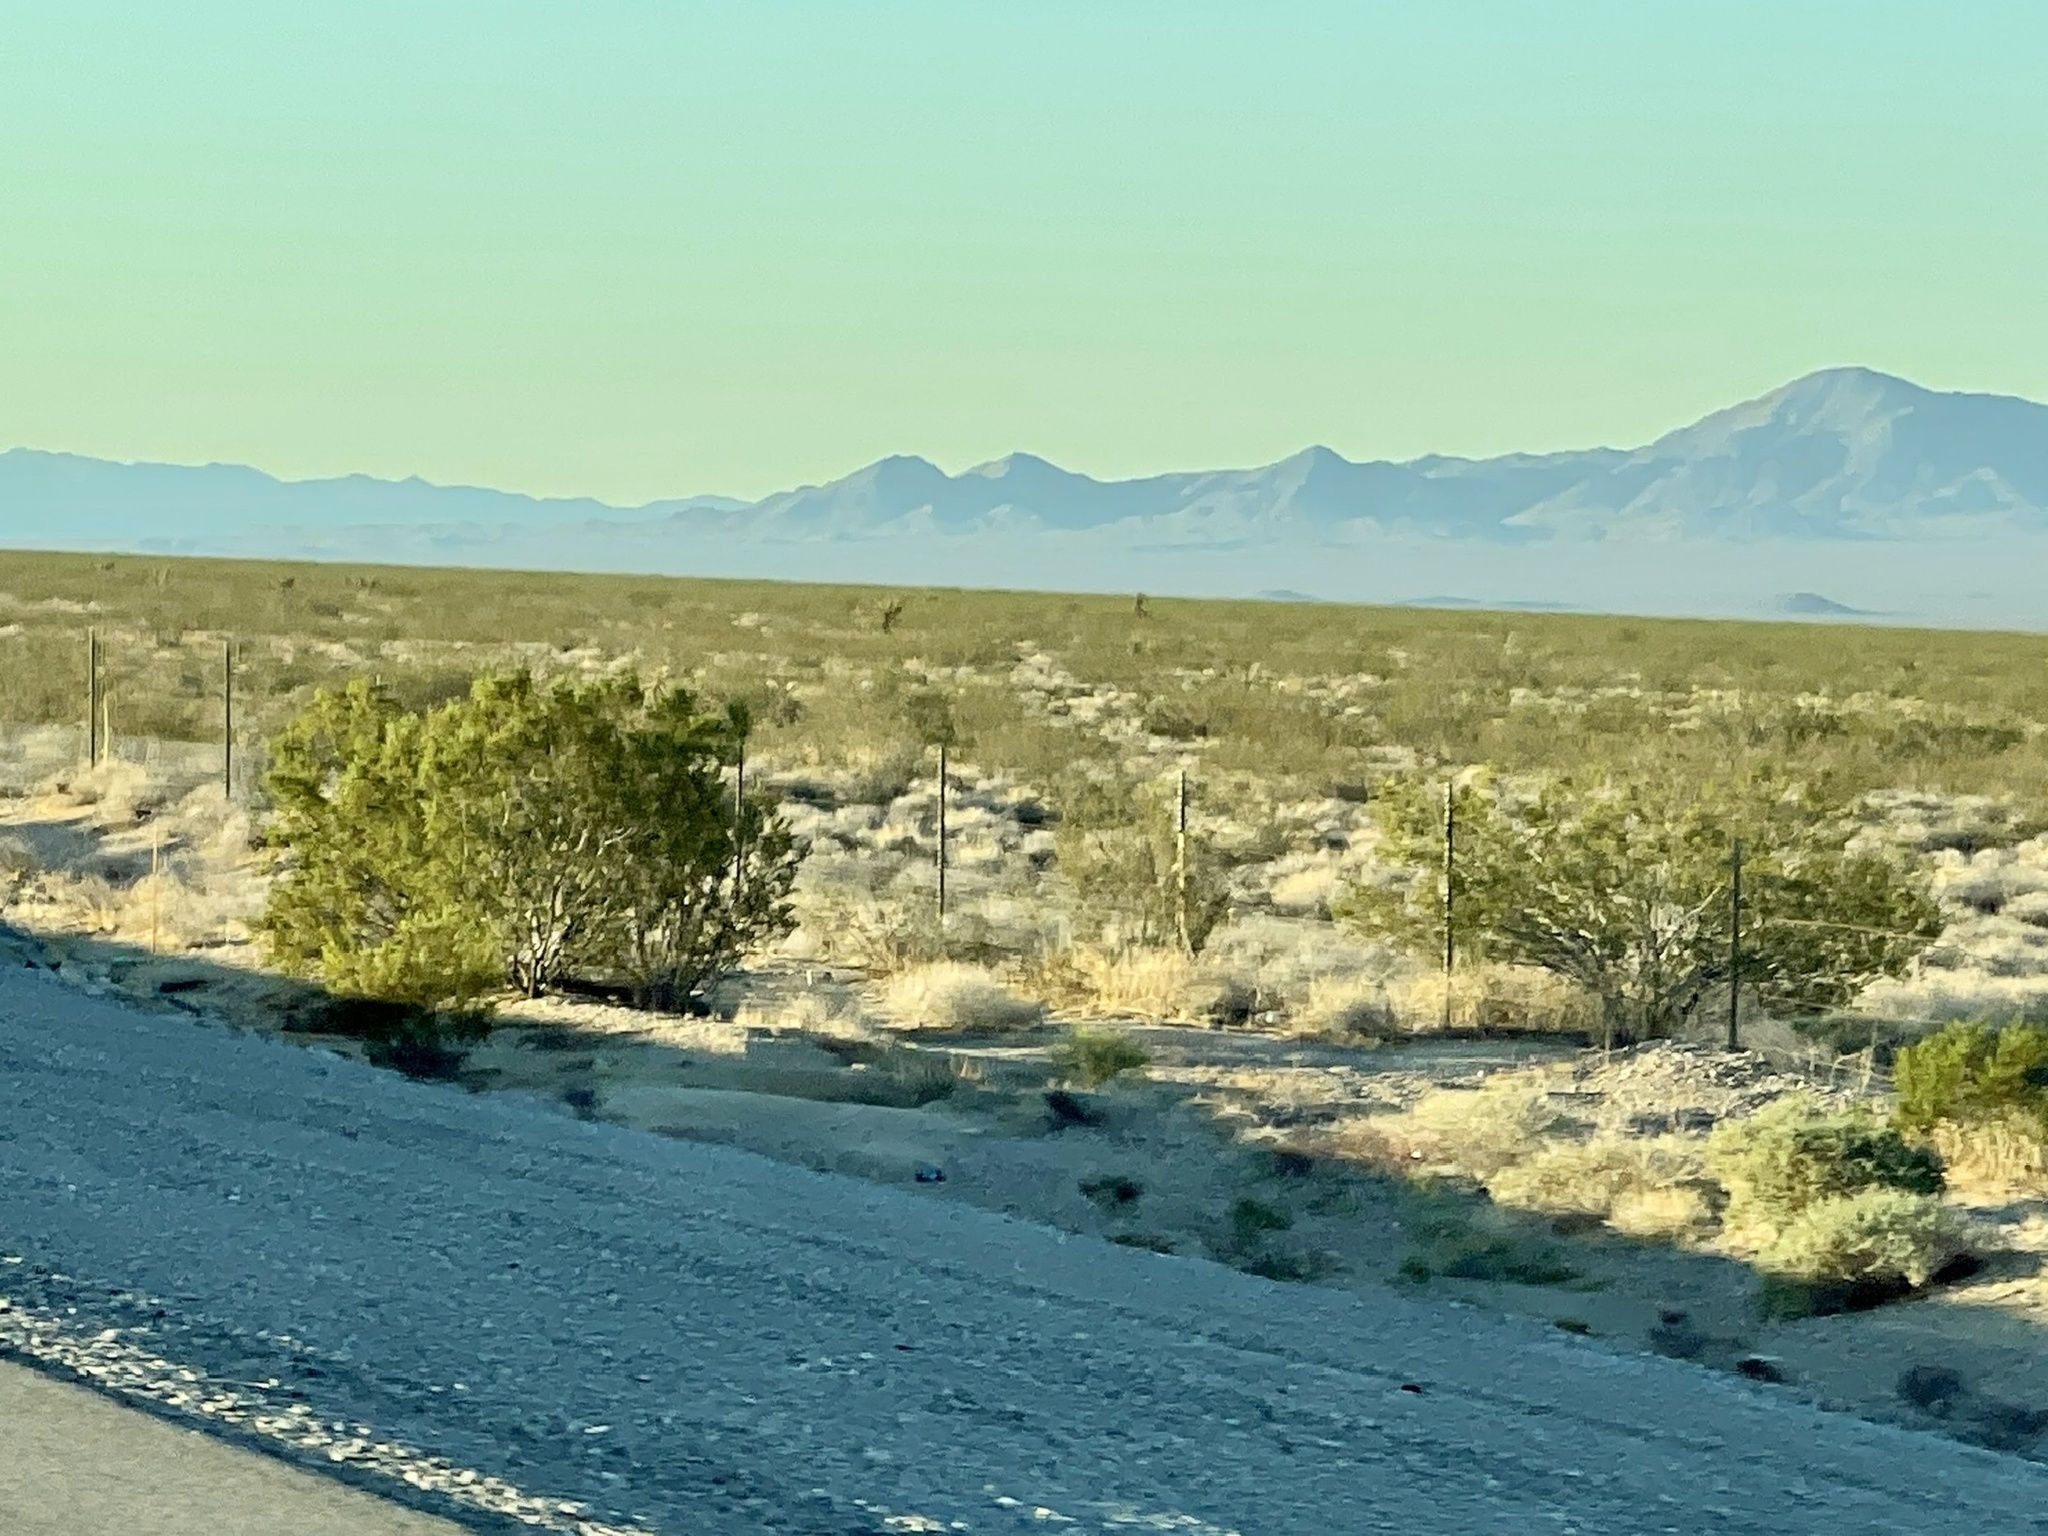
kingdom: Plantae
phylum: Tracheophyta
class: Magnoliopsida
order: Zygophyllales
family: Zygophyllaceae
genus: Larrea
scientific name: Larrea tridentata
